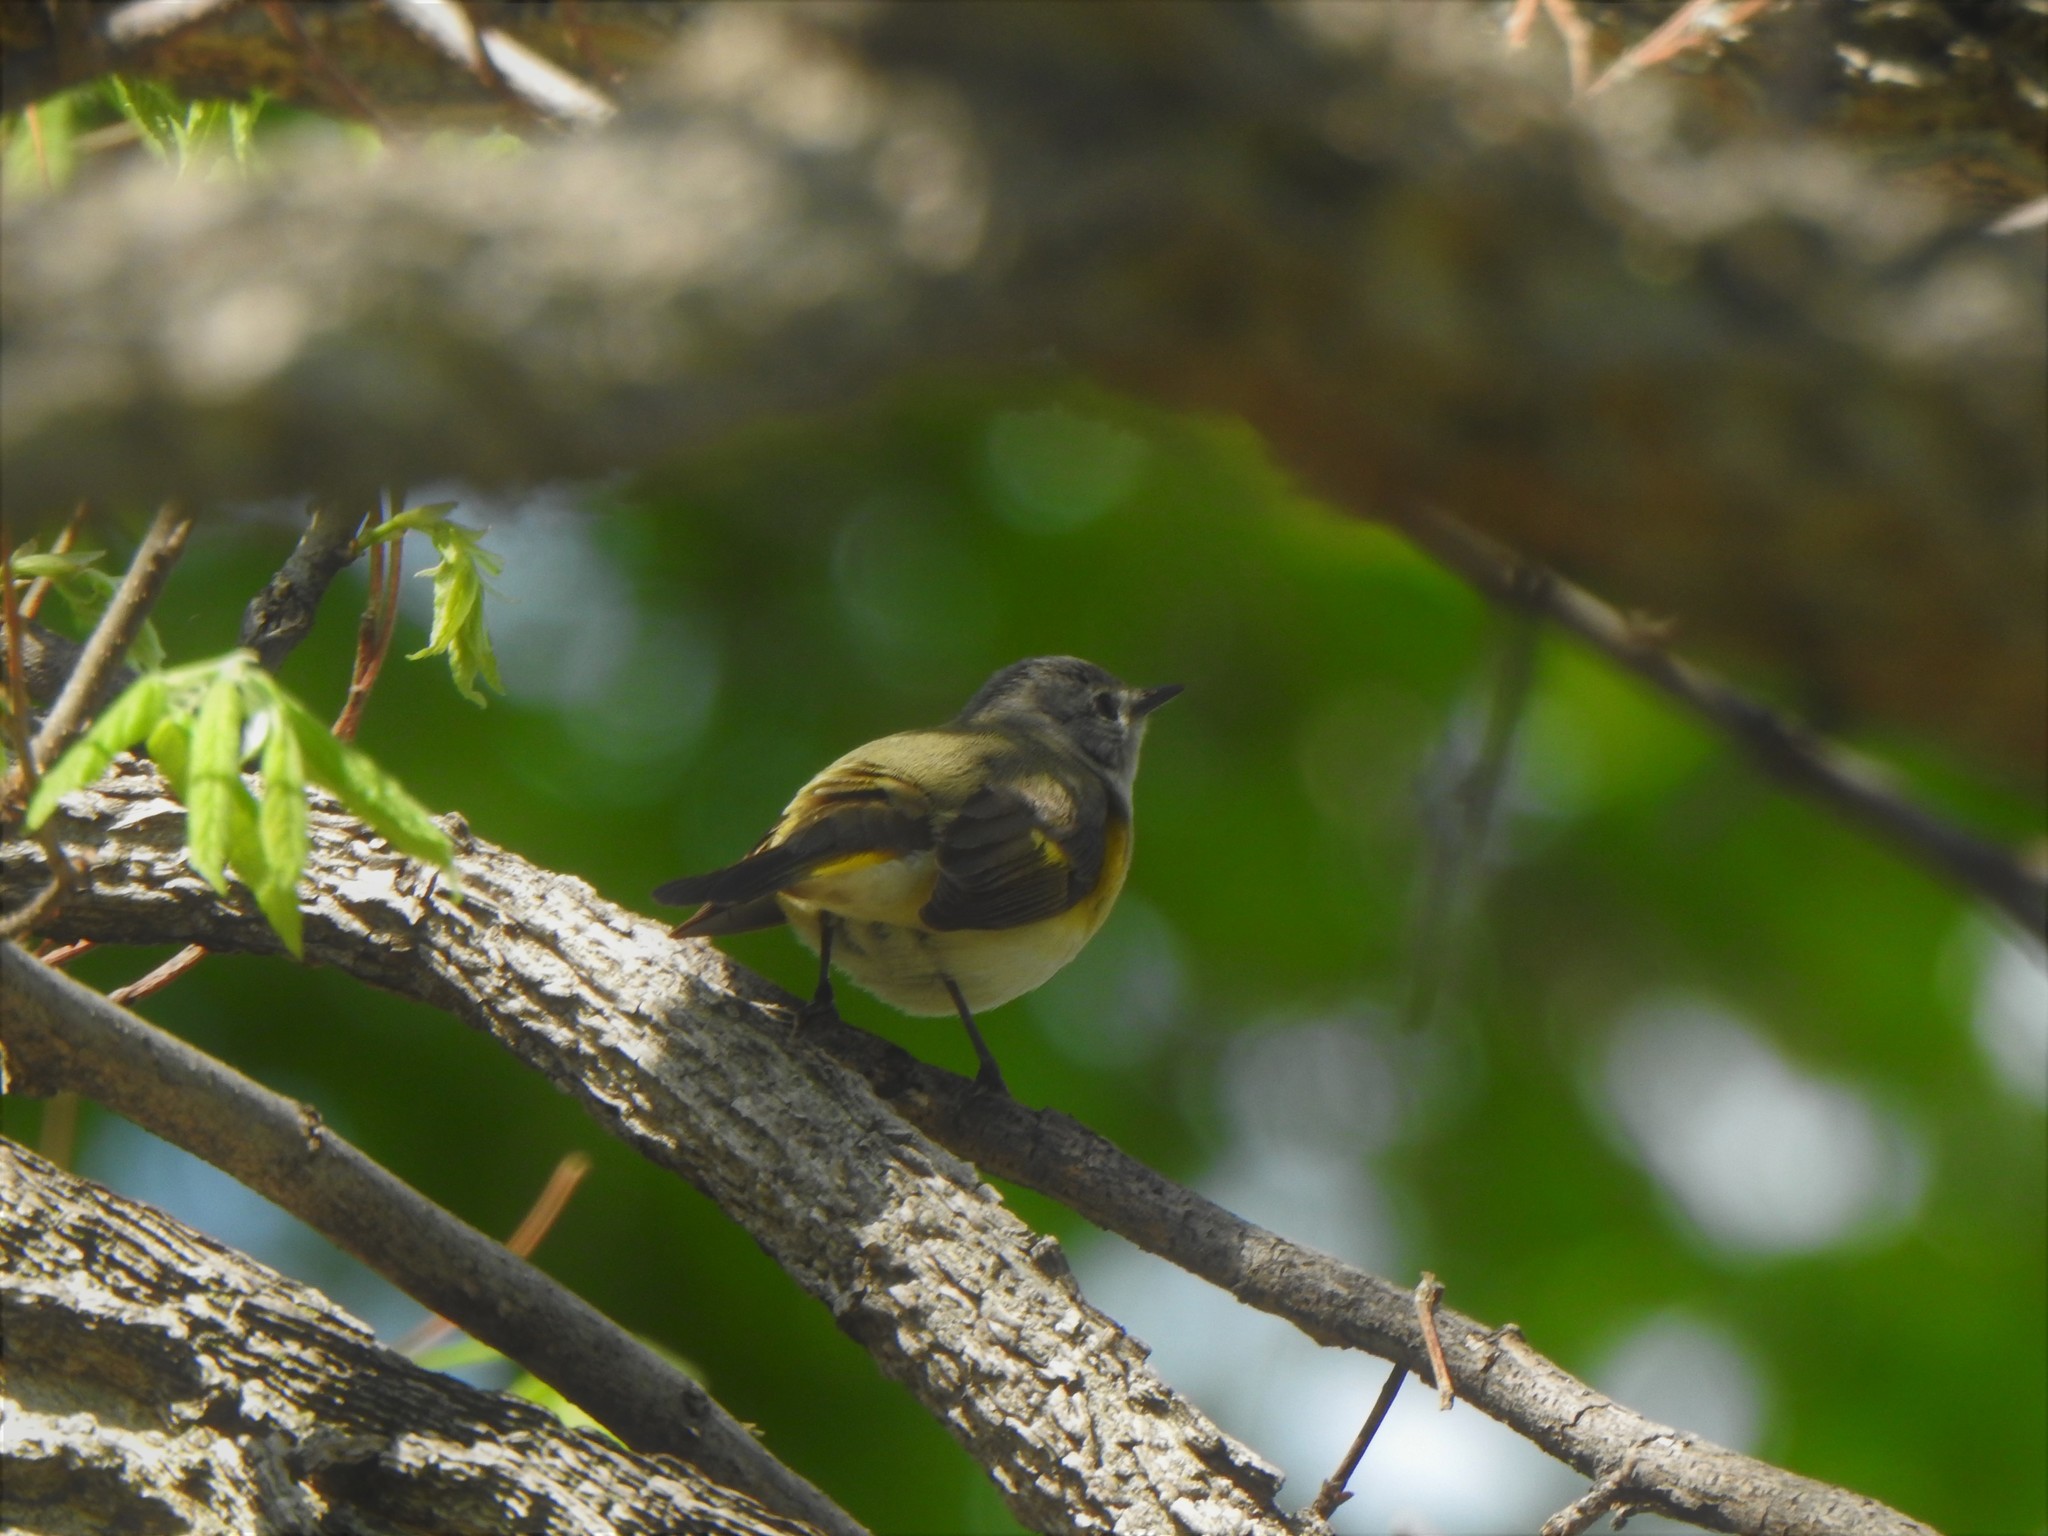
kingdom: Animalia
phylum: Chordata
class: Aves
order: Passeriformes
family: Parulidae
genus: Setophaga
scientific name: Setophaga ruticilla
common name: American redstart
